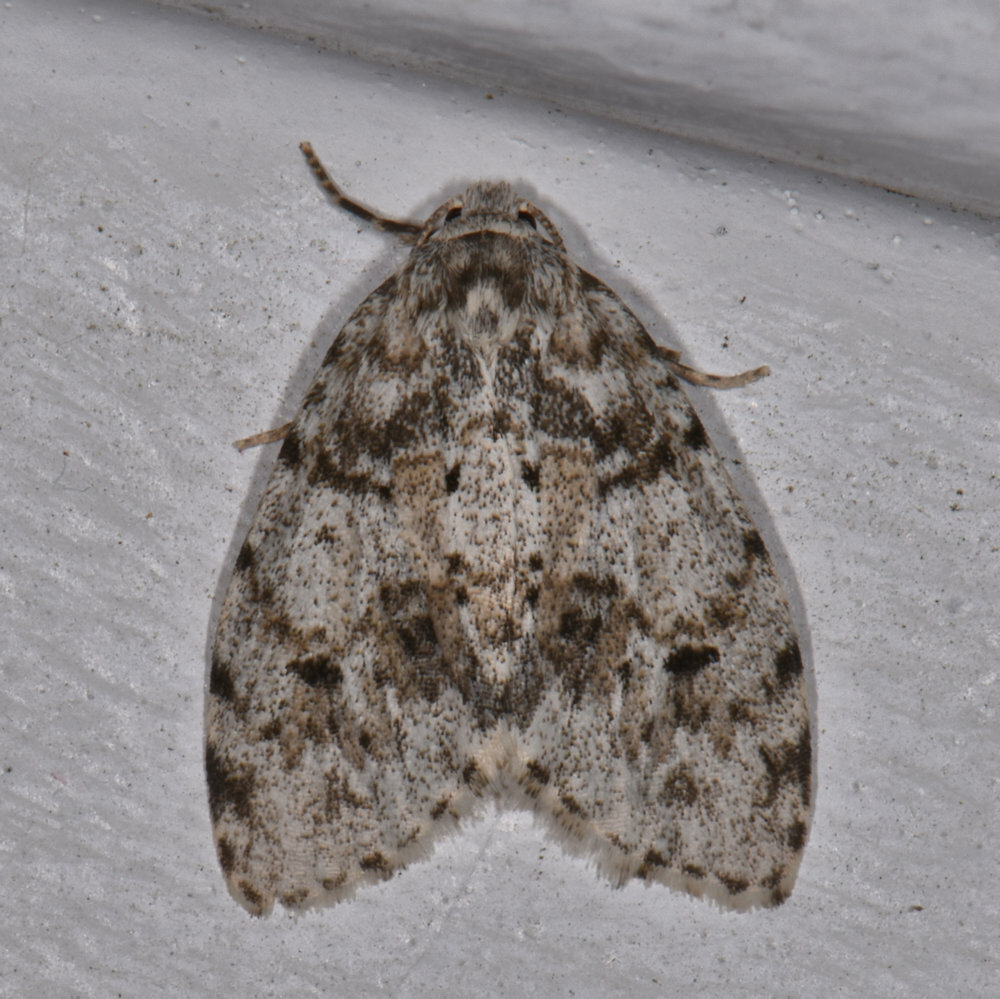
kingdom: Animalia
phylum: Arthropoda
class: Insecta
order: Lepidoptera
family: Erebidae
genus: Clemensia
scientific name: Clemensia albata
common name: Little white lichen moth
